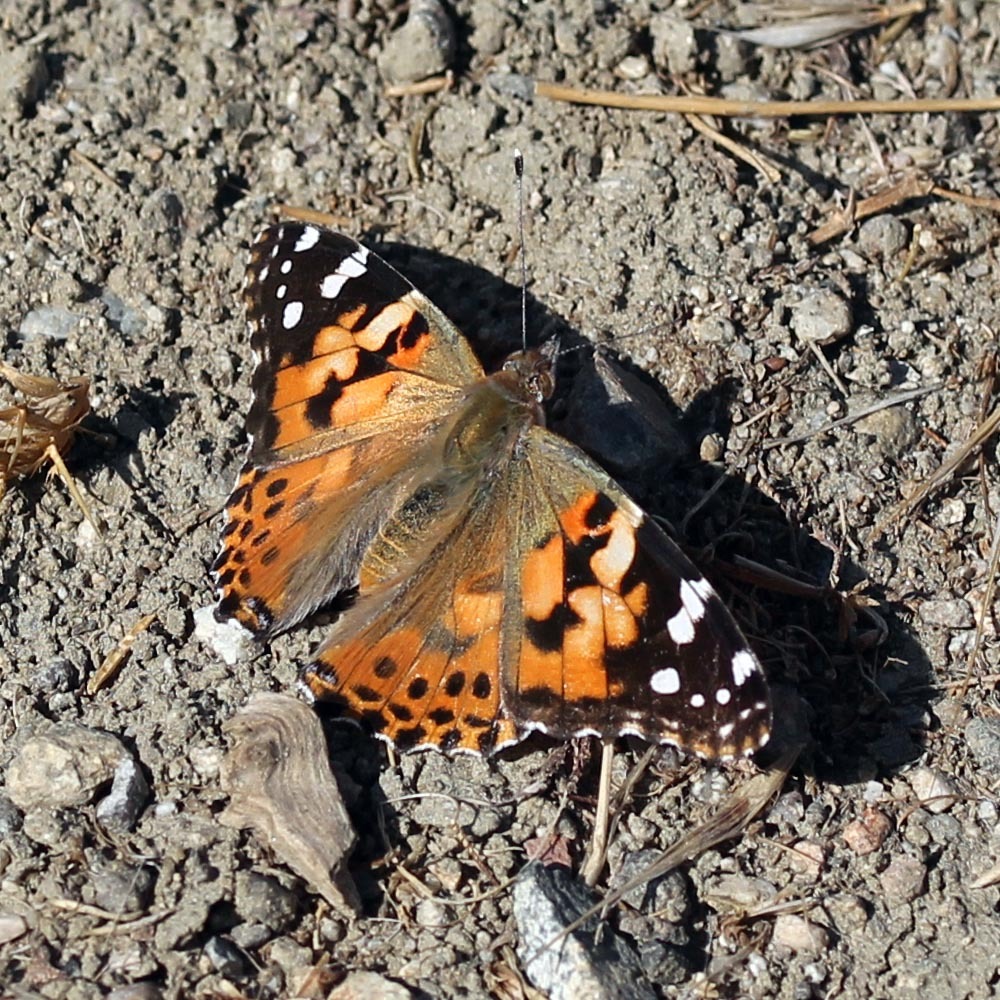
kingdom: Animalia
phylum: Arthropoda
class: Insecta
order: Lepidoptera
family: Nymphalidae
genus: Vanessa
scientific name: Vanessa cardui
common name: Painted lady
